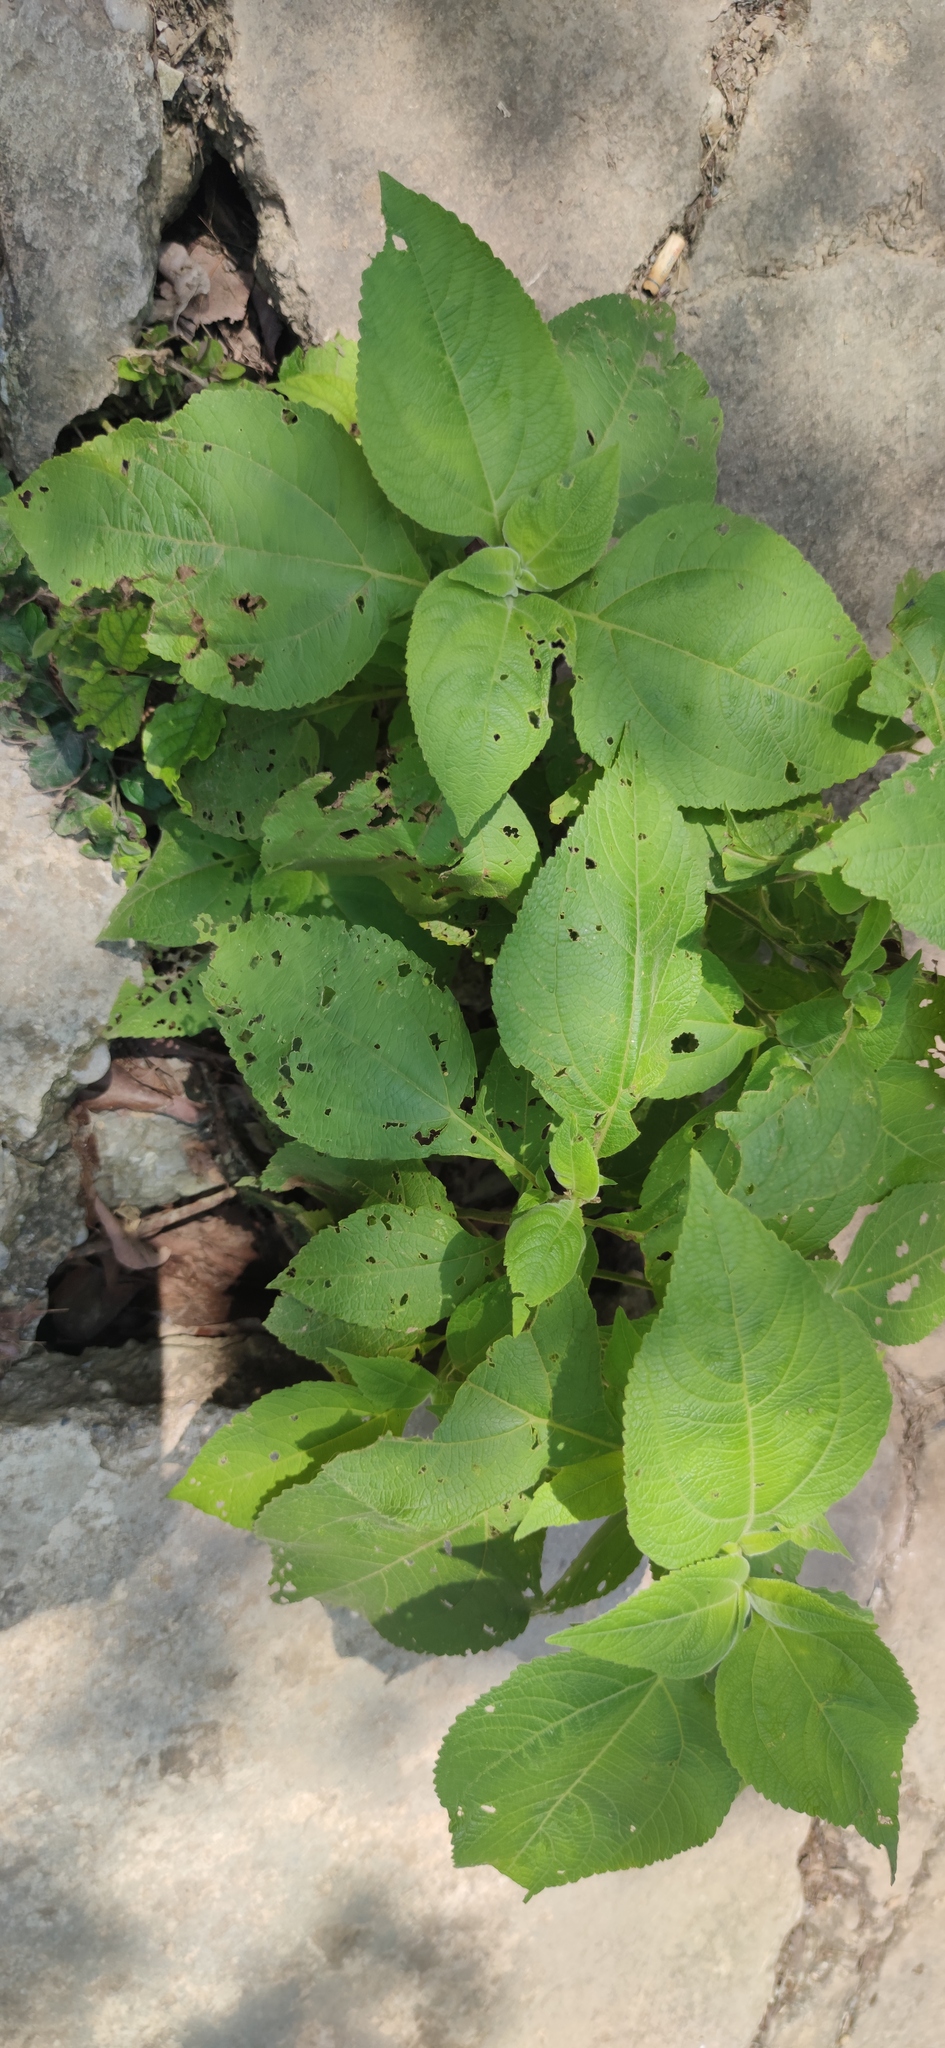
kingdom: Plantae
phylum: Tracheophyta
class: Magnoliopsida
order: Asterales
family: Asteraceae
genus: Greenmaniella
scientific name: Greenmaniella resinosa
